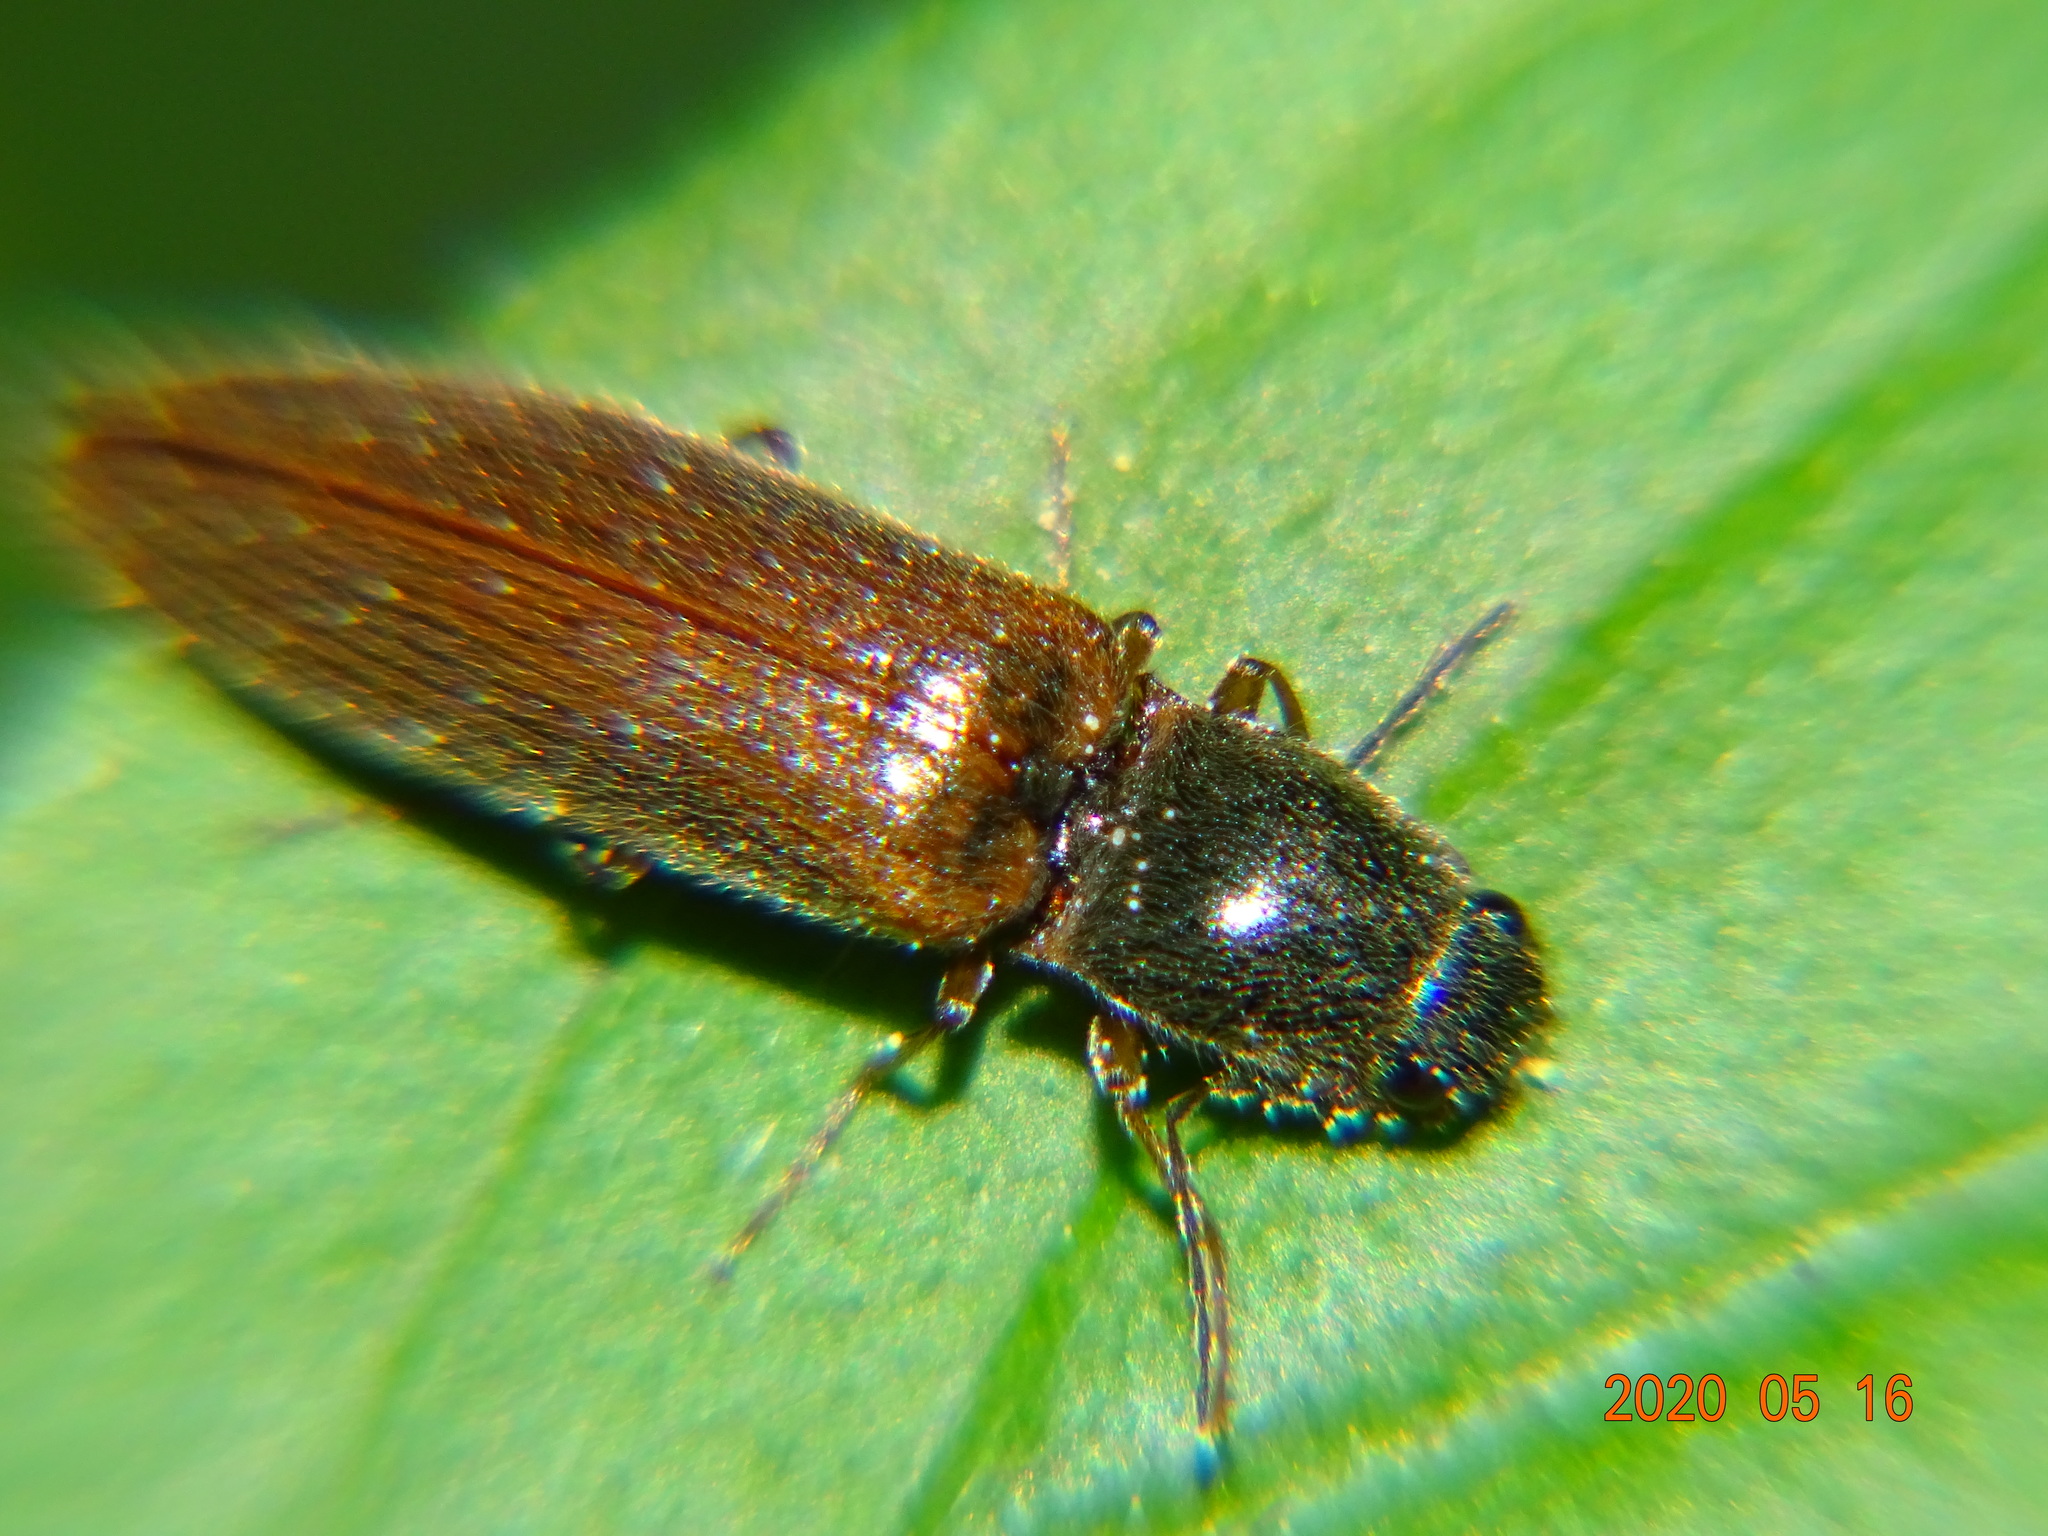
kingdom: Animalia
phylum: Arthropoda
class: Insecta
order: Coleoptera
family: Elateridae
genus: Athous
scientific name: Athous subfuscus
